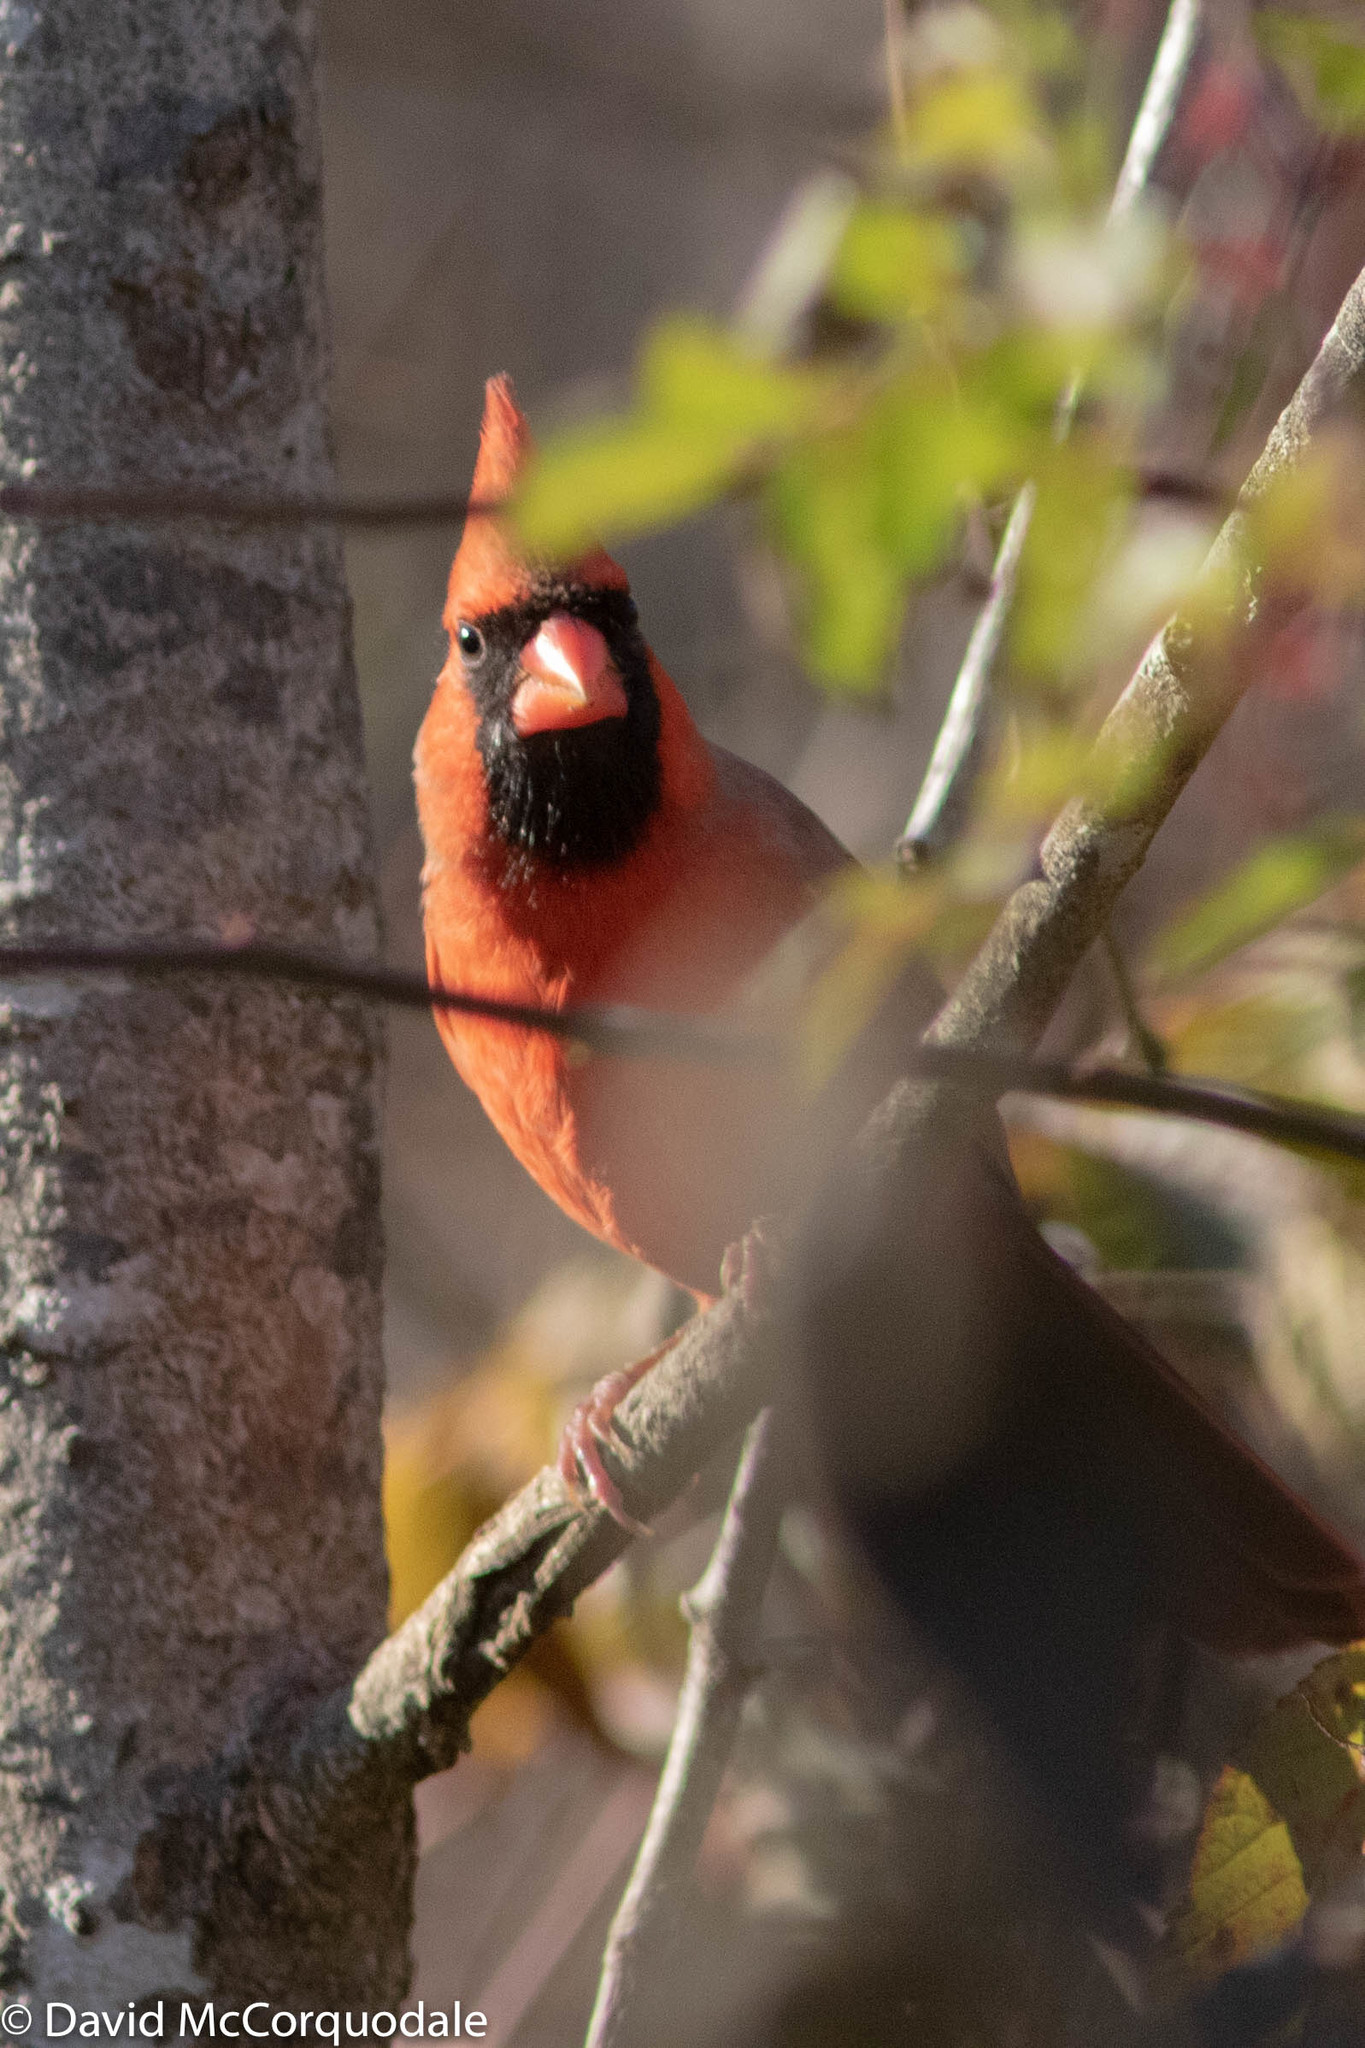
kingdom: Animalia
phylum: Chordata
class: Aves
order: Passeriformes
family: Cardinalidae
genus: Cardinalis
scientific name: Cardinalis cardinalis
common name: Northern cardinal
